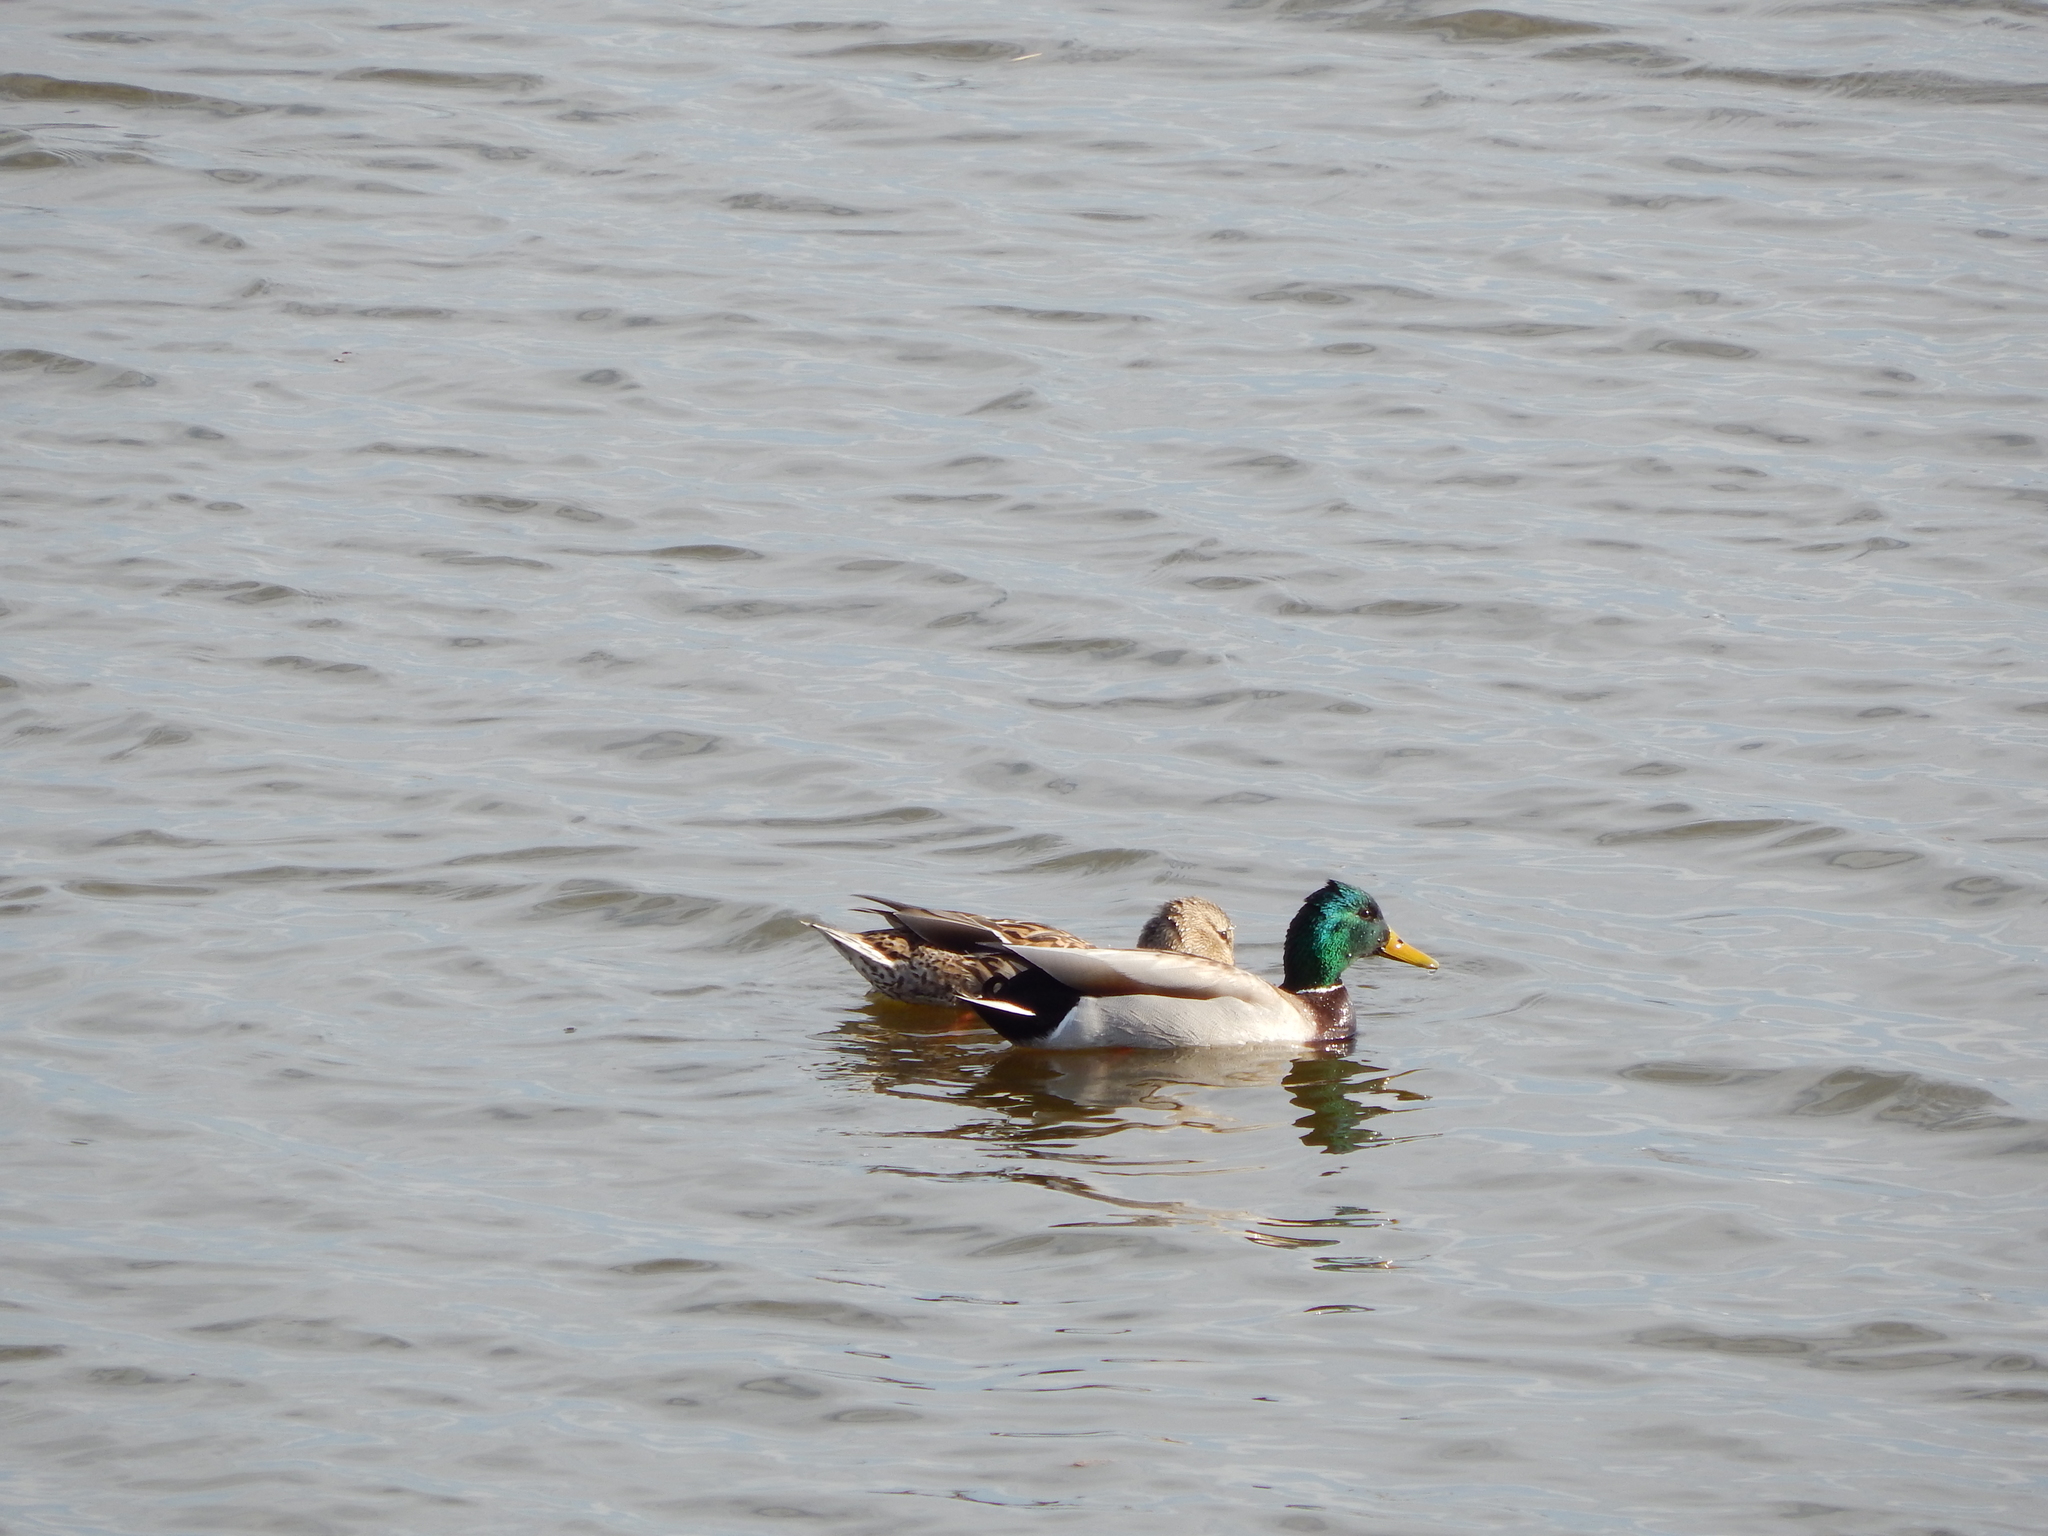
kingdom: Animalia
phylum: Chordata
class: Aves
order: Anseriformes
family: Anatidae
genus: Anas
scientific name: Anas platyrhynchos
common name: Mallard
